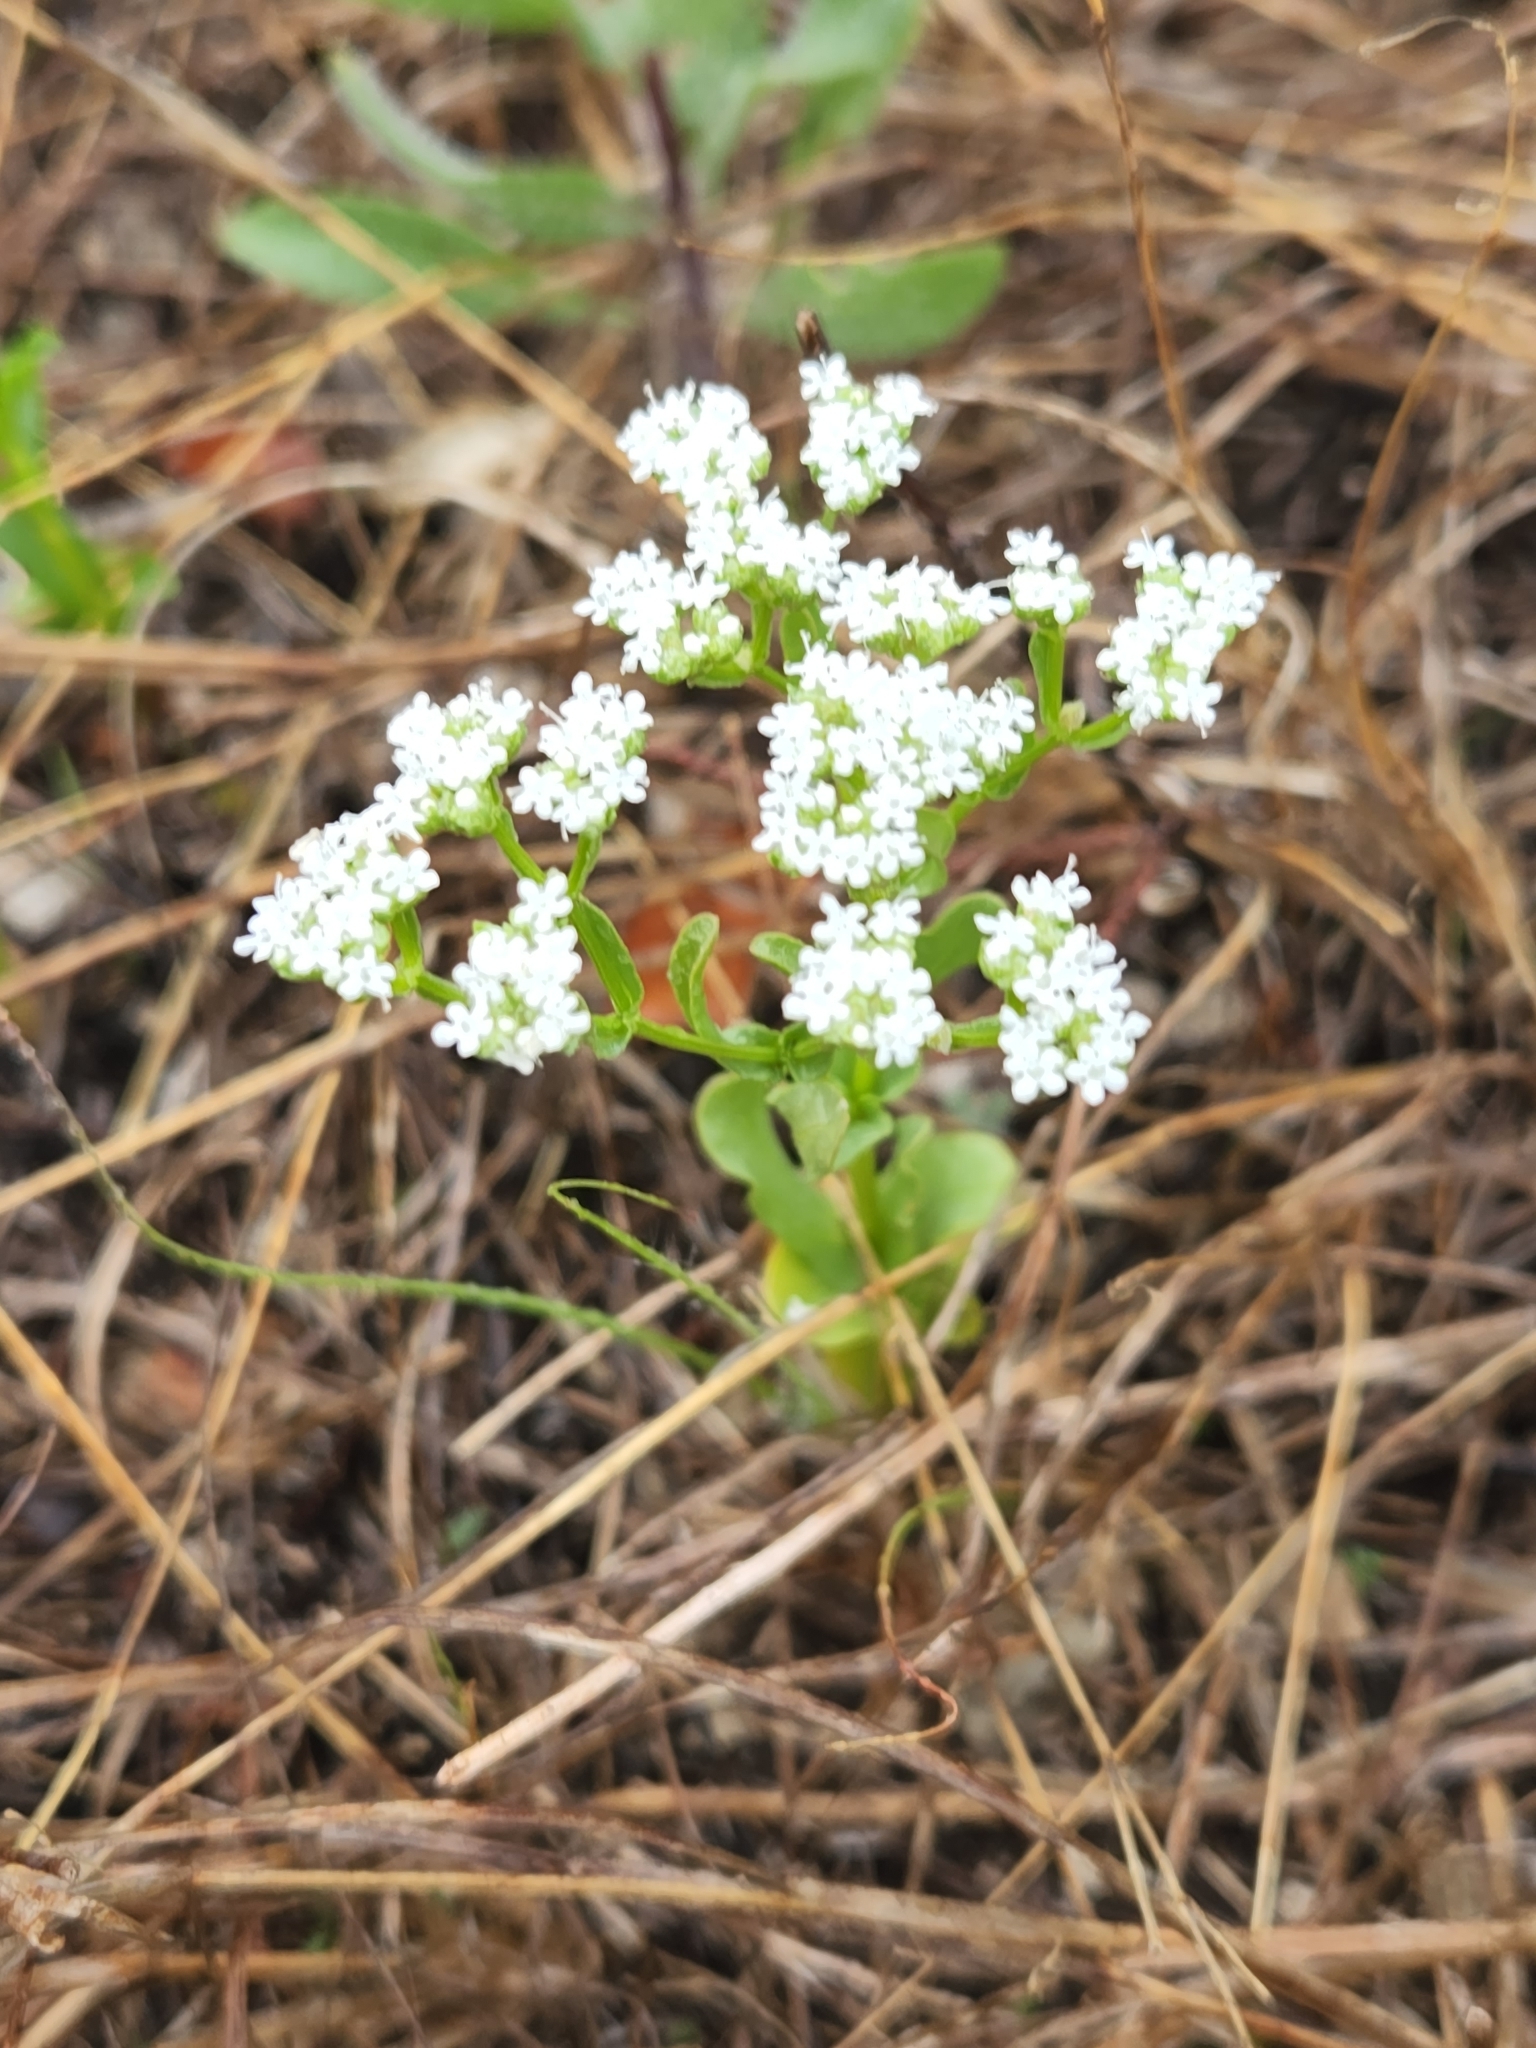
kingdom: Plantae
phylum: Tracheophyta
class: Magnoliopsida
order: Dipsacales
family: Caprifoliaceae
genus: Valerianella
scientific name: Valerianella amarella
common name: Hariy cornsalad
